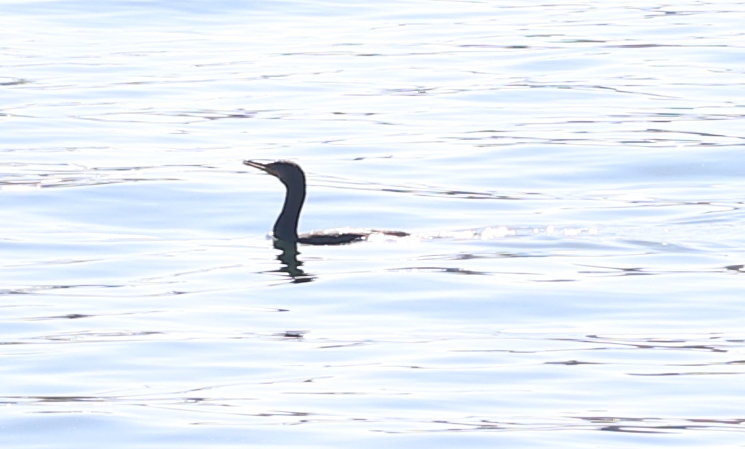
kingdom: Animalia
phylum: Chordata
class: Aves
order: Suliformes
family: Phalacrocoracidae
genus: Phalacrocorax
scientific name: Phalacrocorax auritus
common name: Double-crested cormorant
